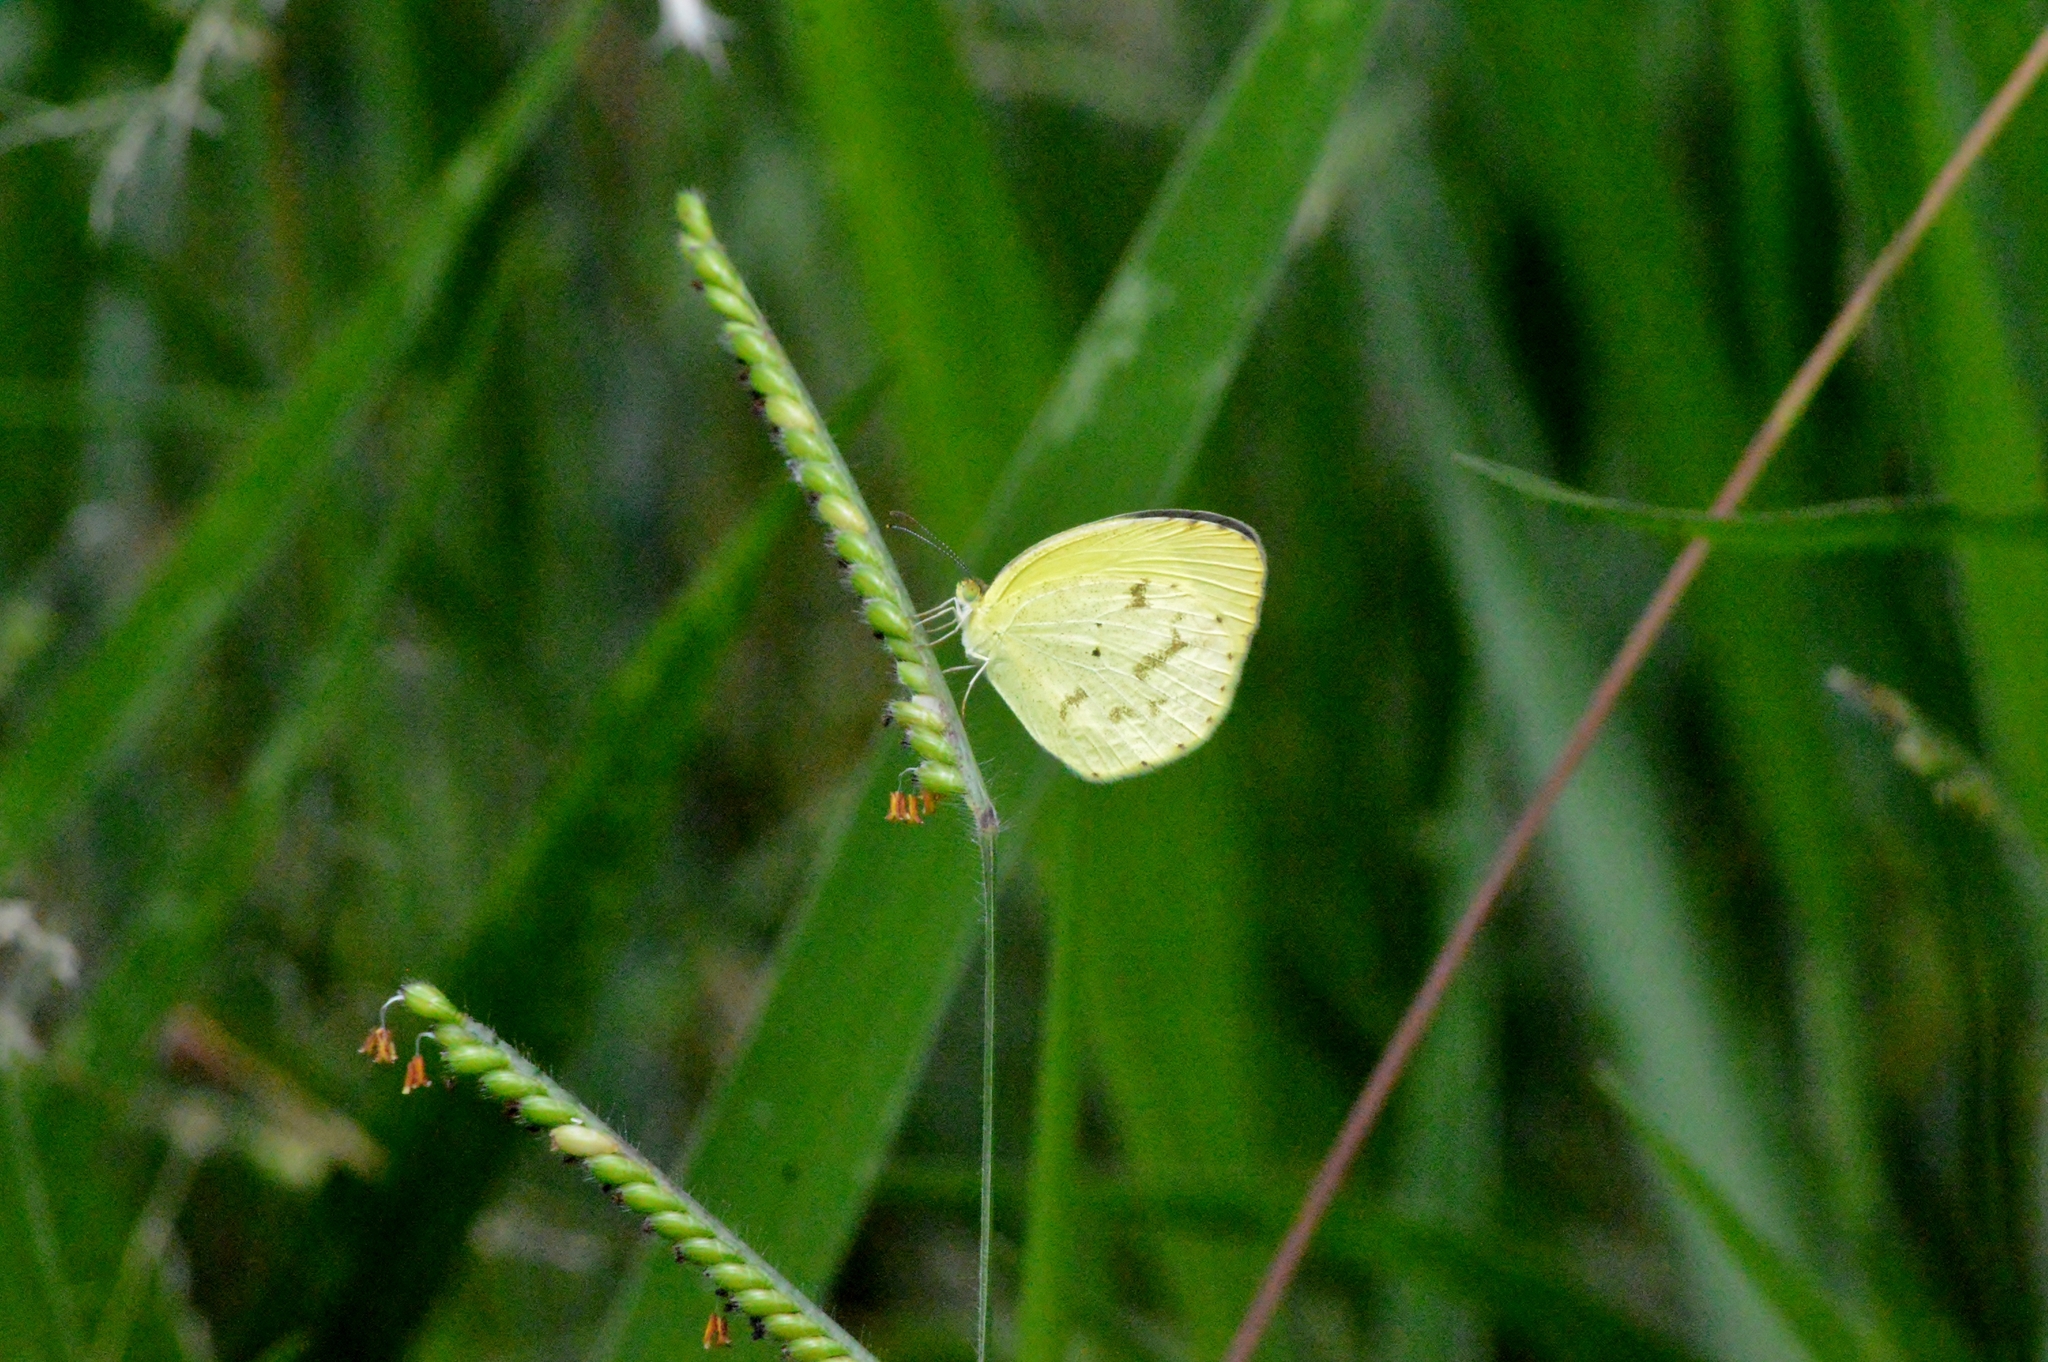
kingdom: Animalia
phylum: Arthropoda
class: Insecta
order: Lepidoptera
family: Pieridae
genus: Eurema
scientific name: Eurema elathea
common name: Banded yellow
